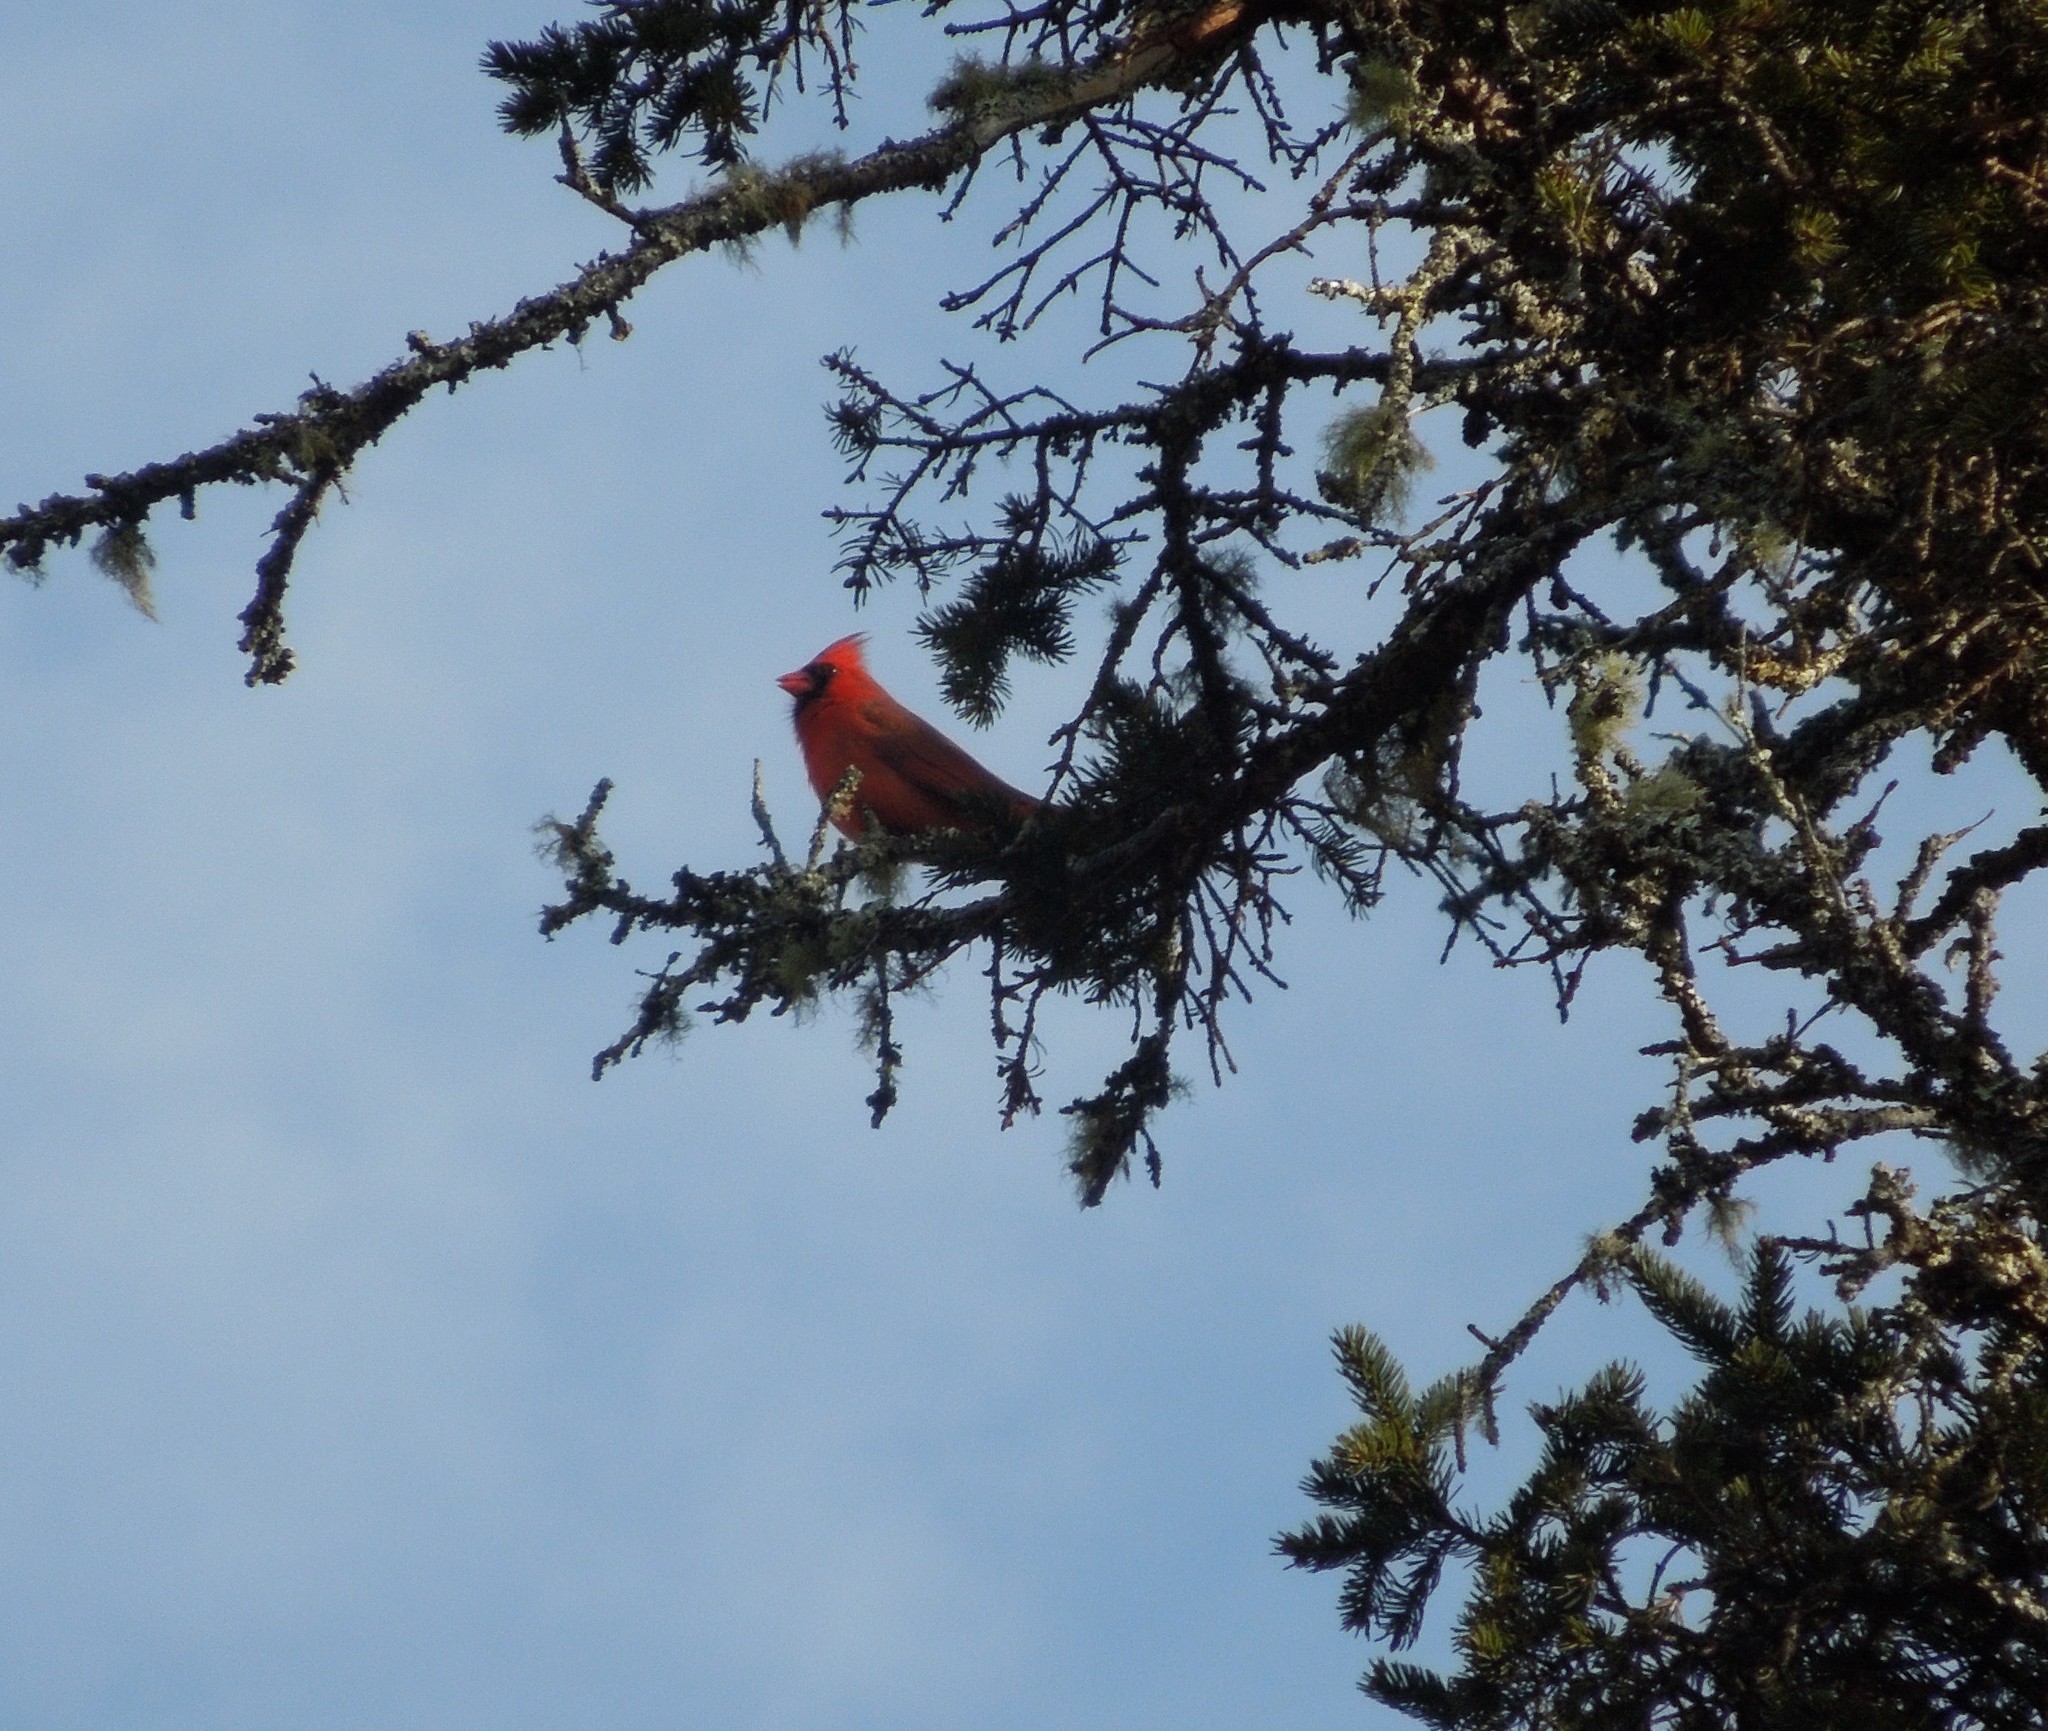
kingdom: Animalia
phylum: Chordata
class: Aves
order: Passeriformes
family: Cardinalidae
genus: Cardinalis
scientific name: Cardinalis cardinalis
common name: Northern cardinal
